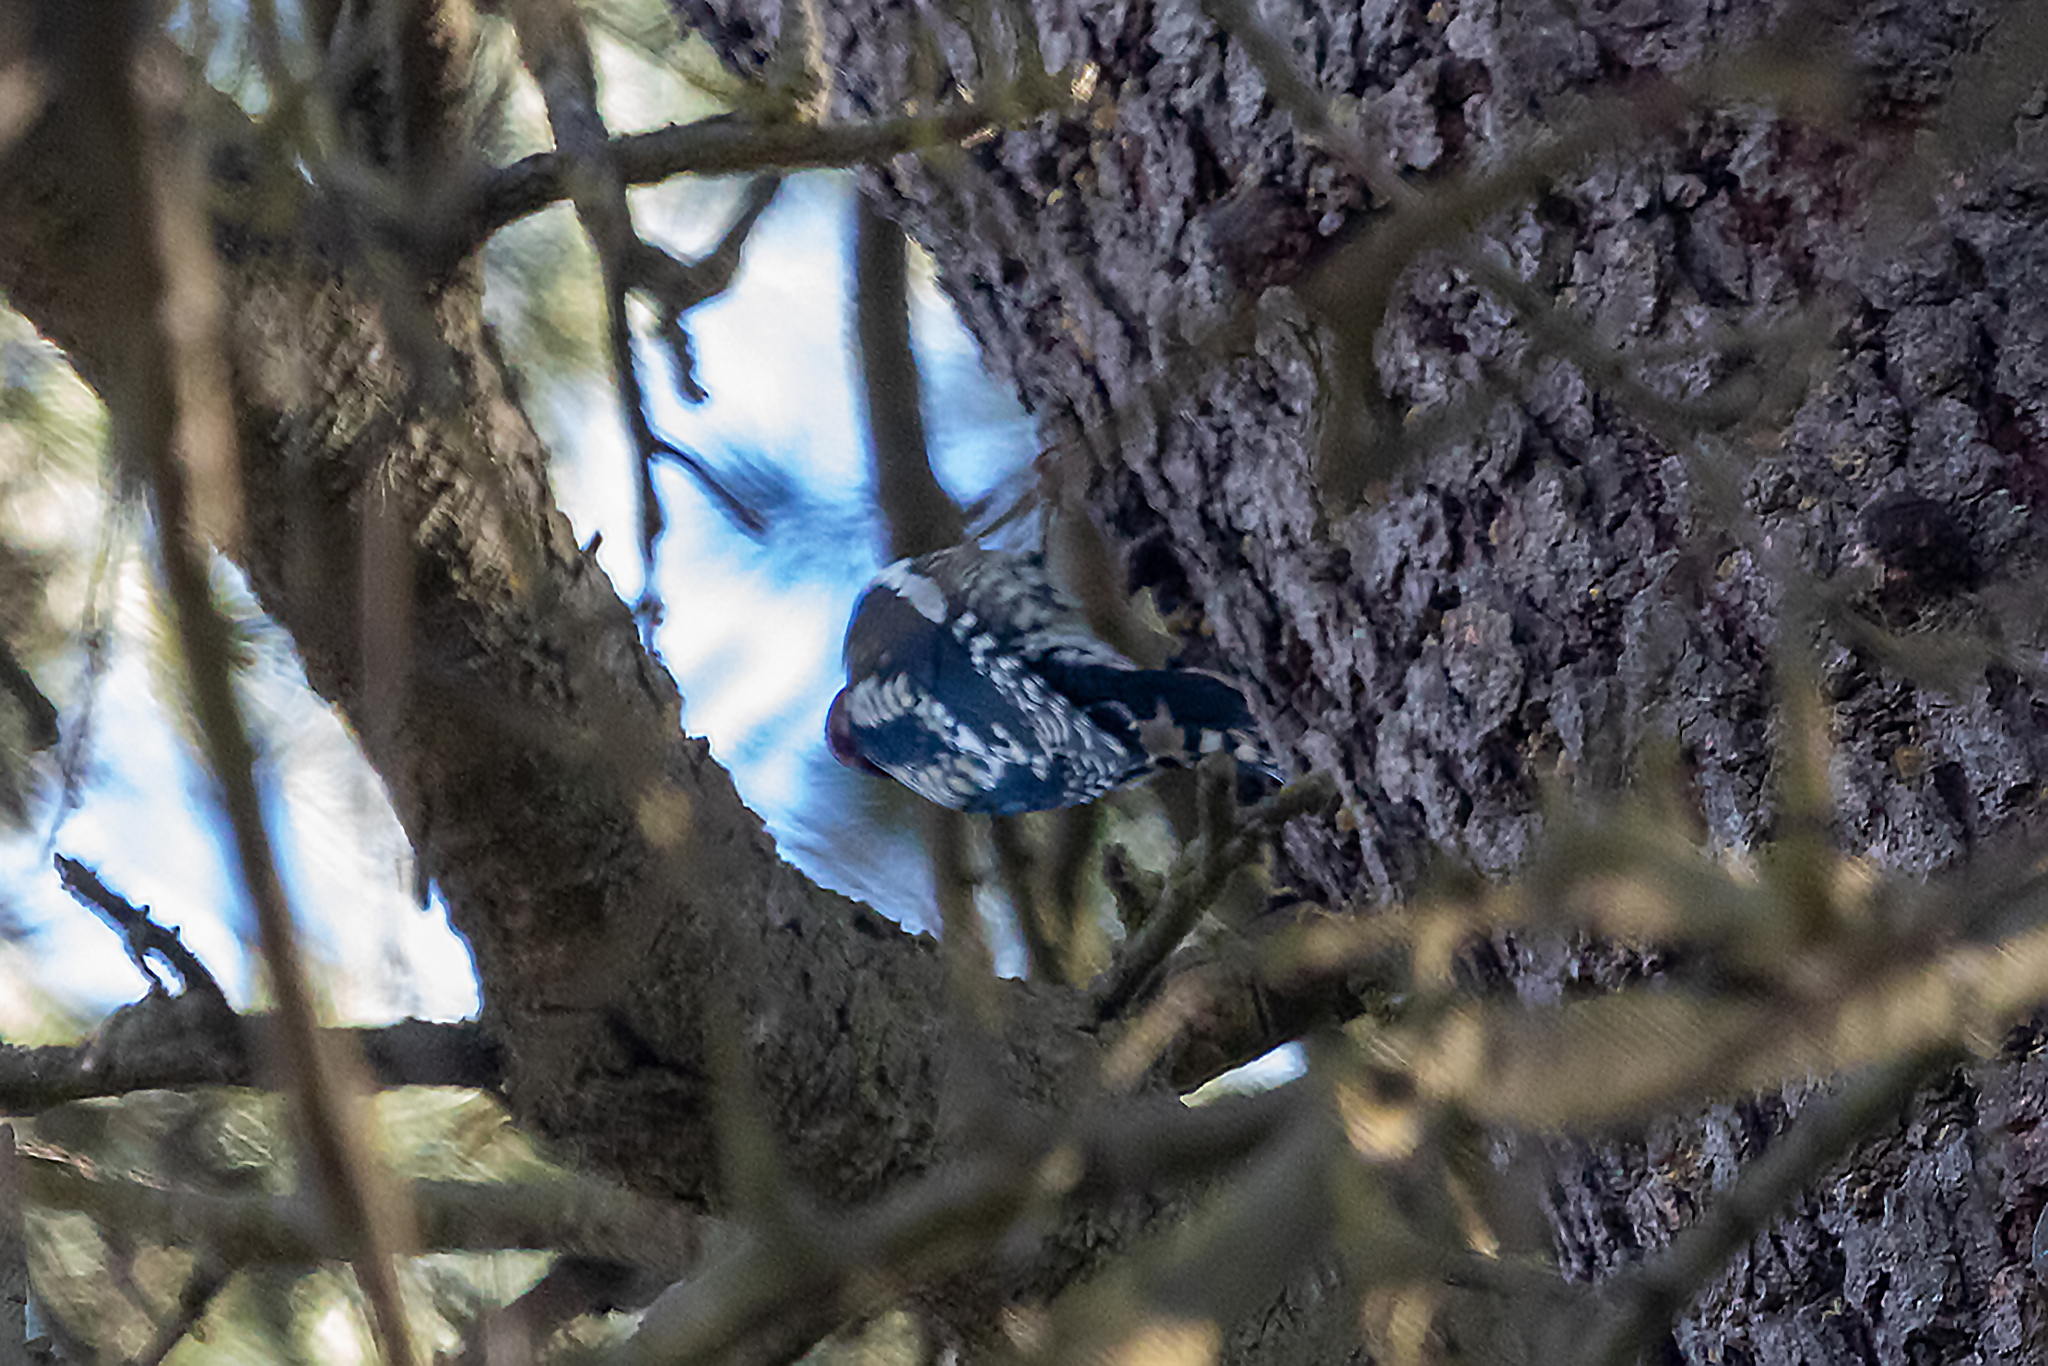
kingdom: Animalia
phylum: Chordata
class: Aves
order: Piciformes
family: Picidae
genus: Sphyrapicus
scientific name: Sphyrapicus ruber
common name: Red-breasted sapsucker
